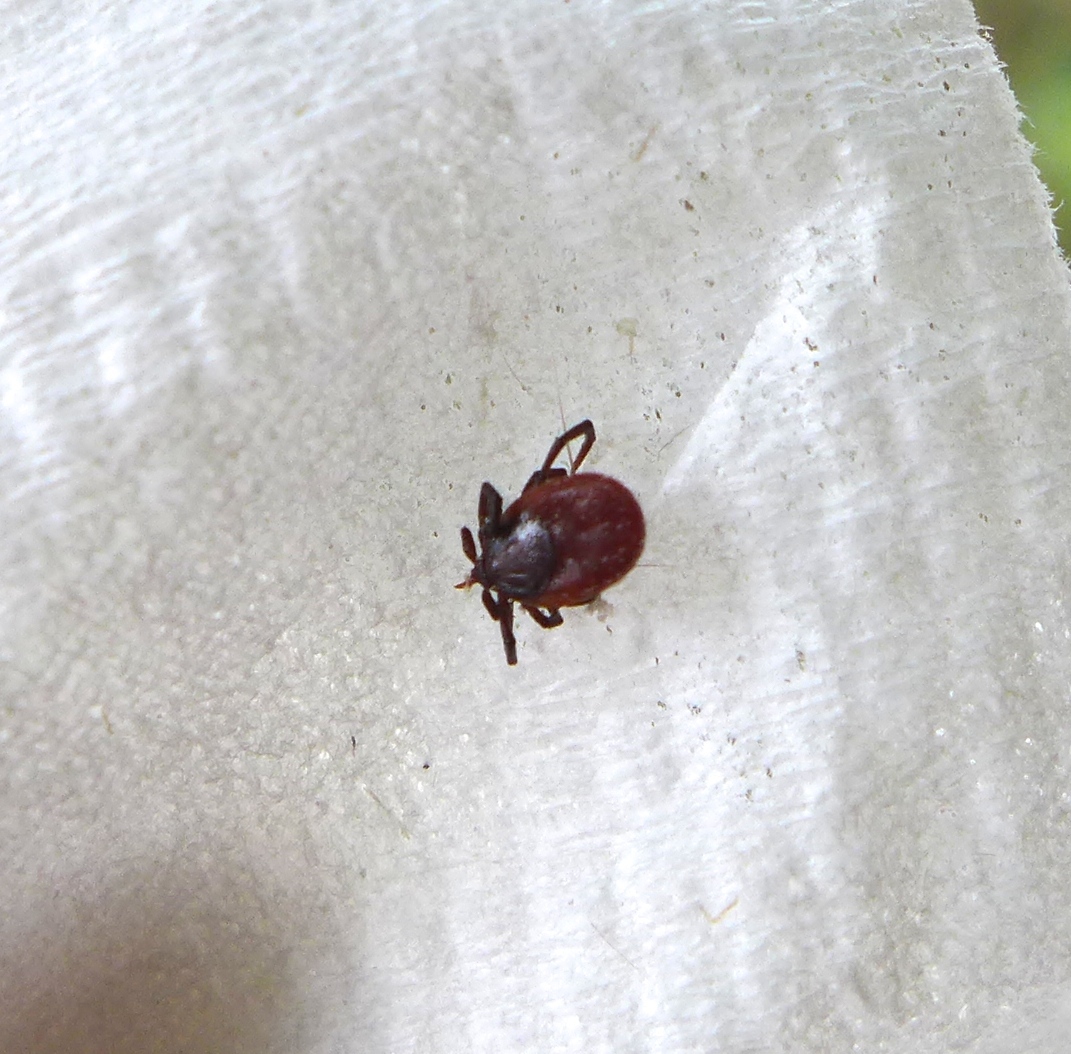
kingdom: Animalia
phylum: Arthropoda
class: Arachnida
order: Ixodida
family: Ixodidae
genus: Ixodes
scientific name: Ixodes pacificus
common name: California black-legged tick
